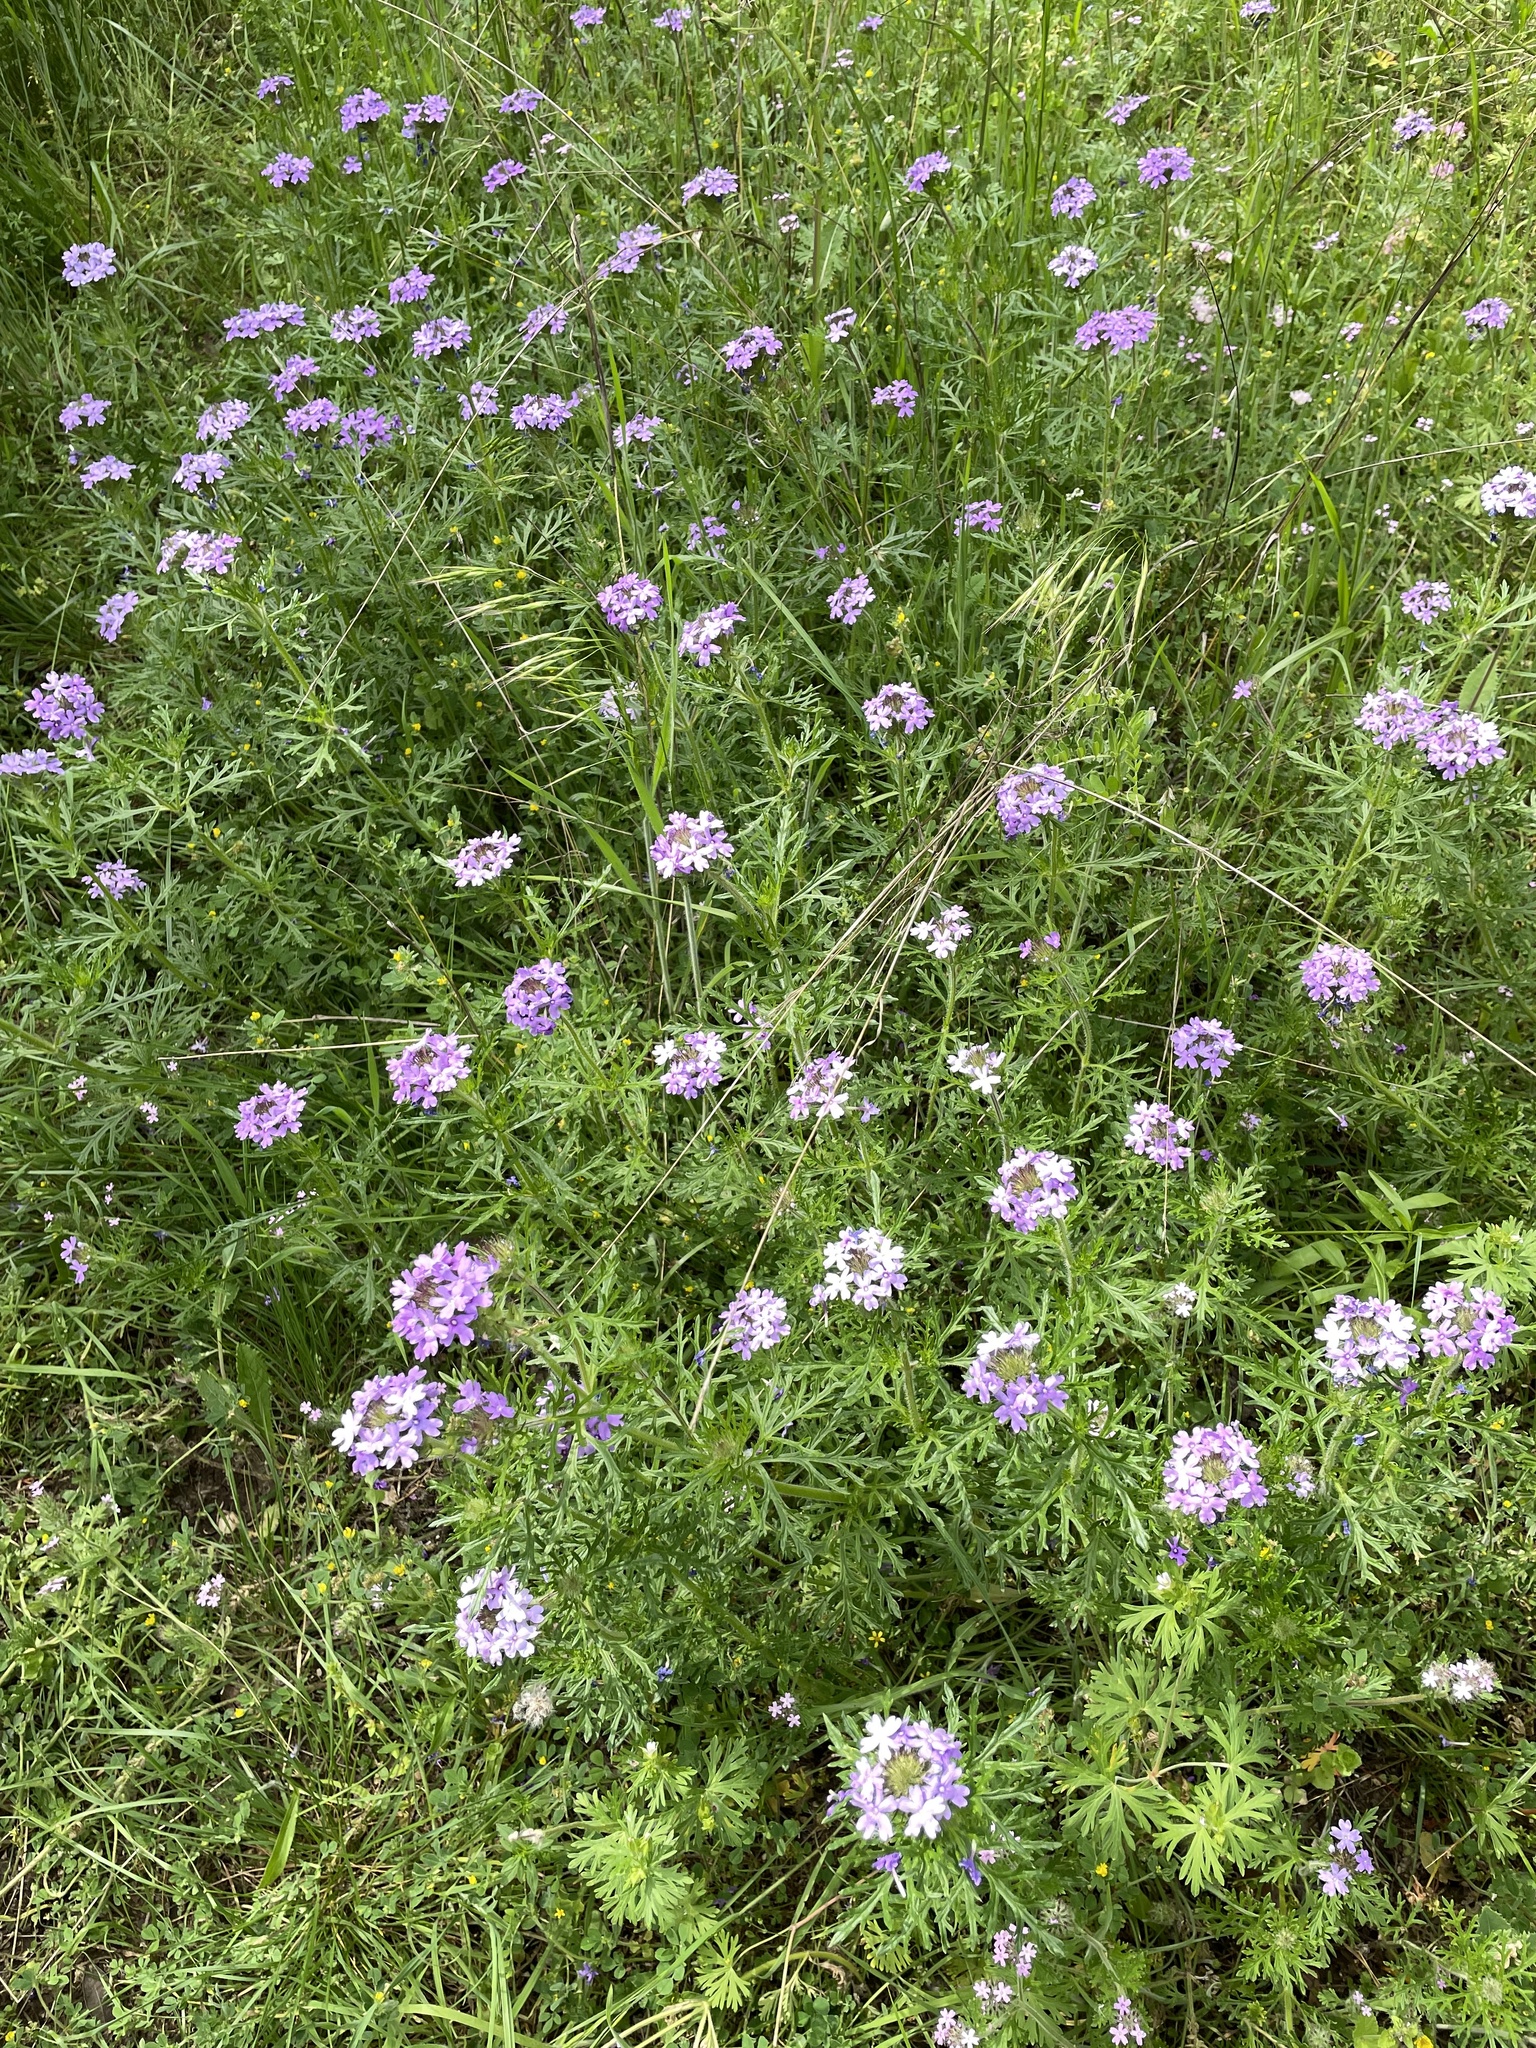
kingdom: Plantae
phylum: Tracheophyta
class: Magnoliopsida
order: Lamiales
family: Verbenaceae
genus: Verbena
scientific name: Verbena bipinnatifida
